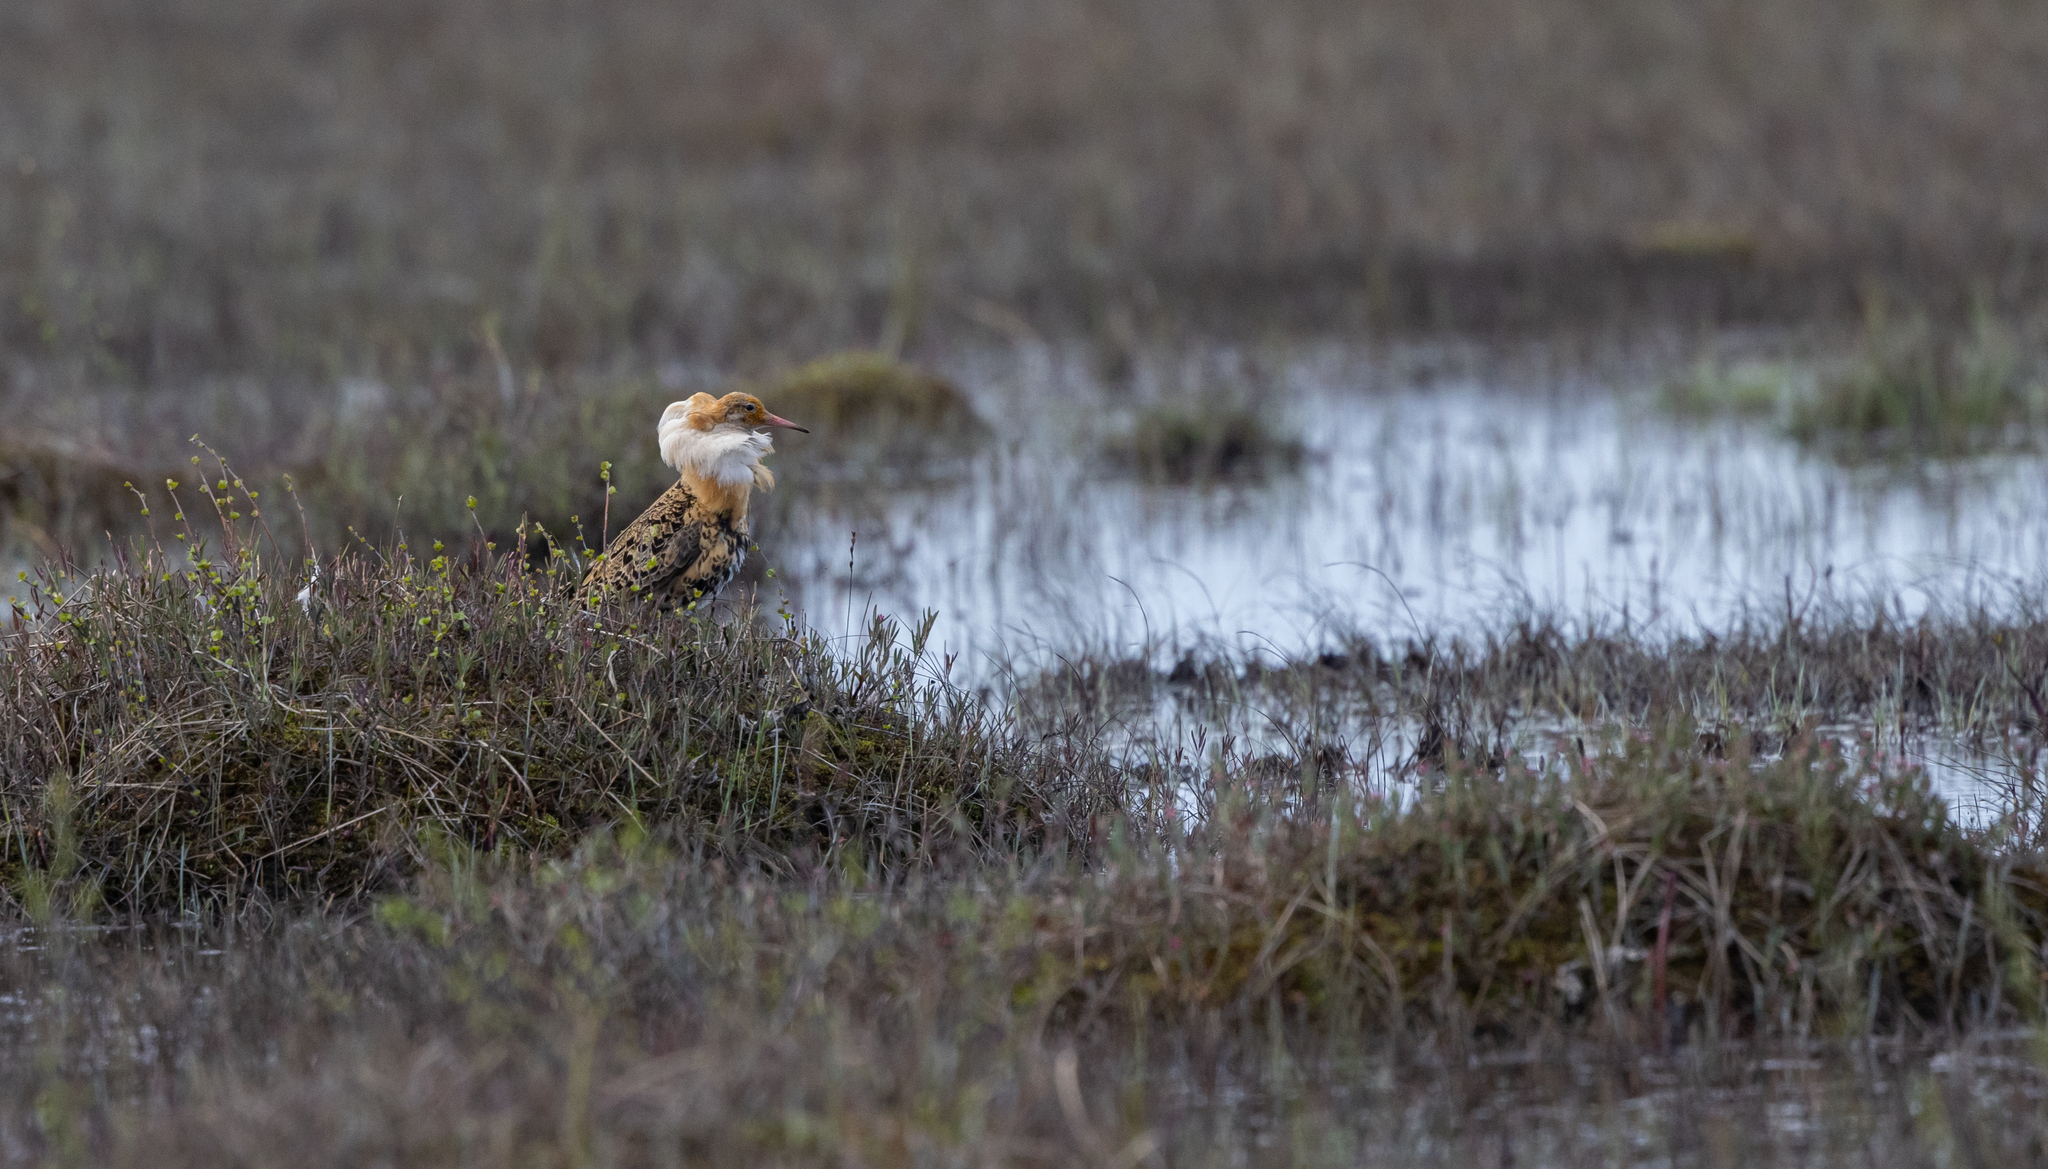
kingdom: Animalia
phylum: Chordata
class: Aves
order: Charadriiformes
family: Scolopacidae
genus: Calidris
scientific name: Calidris pugnax
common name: Ruff
